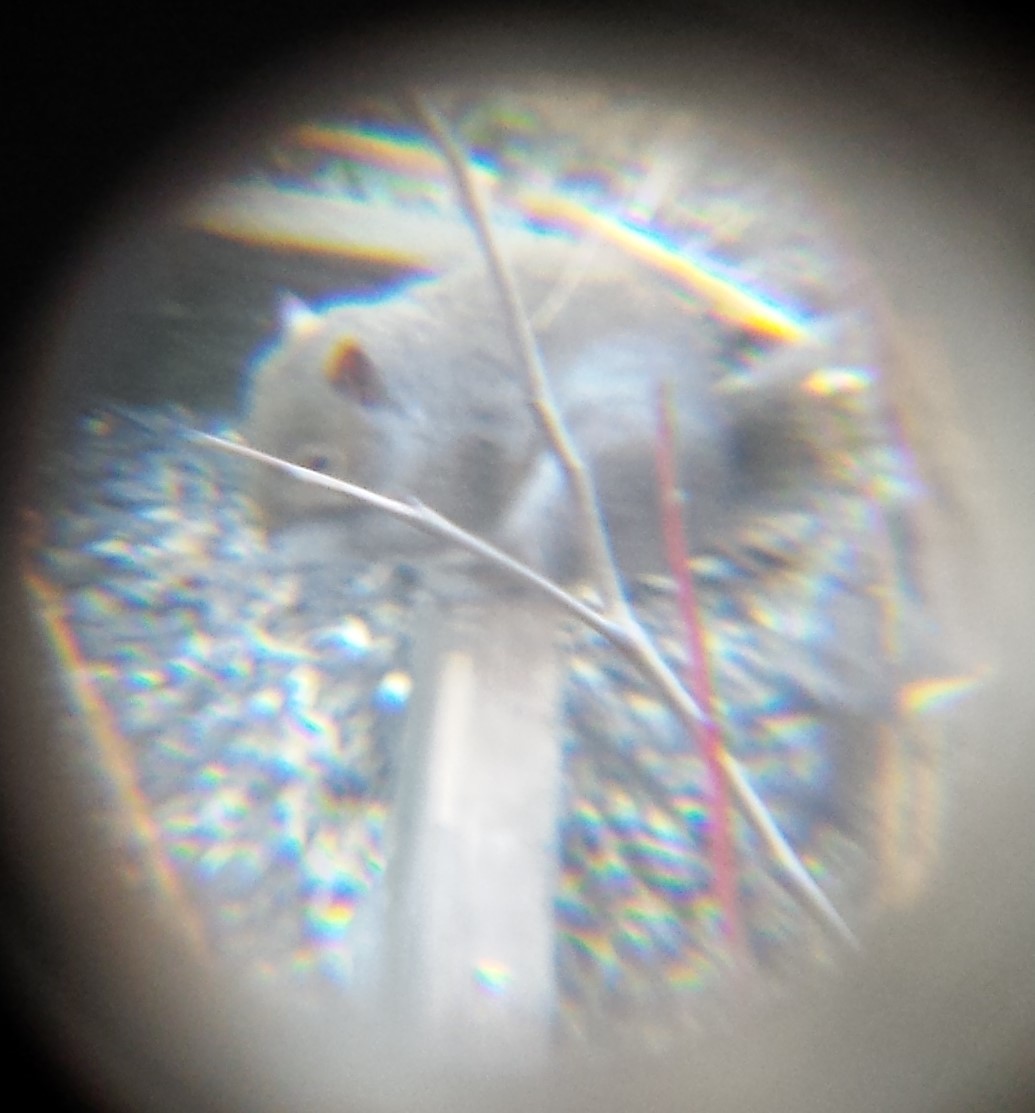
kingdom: Animalia
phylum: Chordata
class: Mammalia
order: Rodentia
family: Sciuridae
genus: Sciurus
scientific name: Sciurus carolinensis
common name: Eastern gray squirrel
